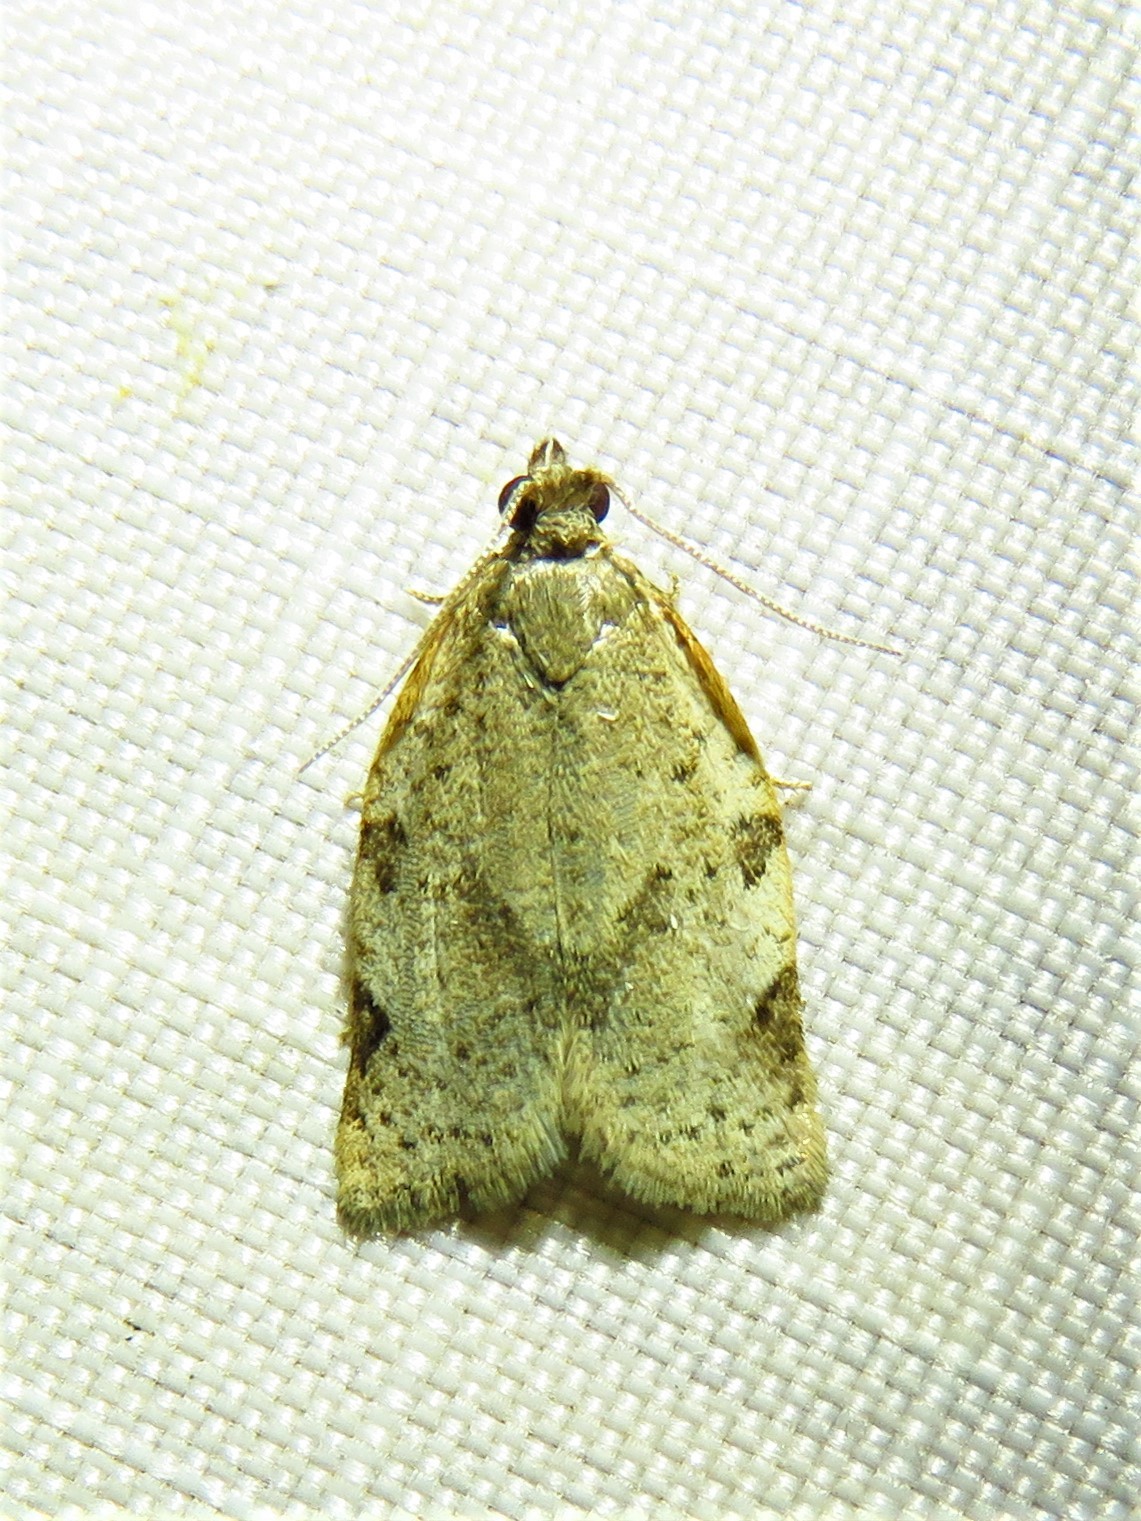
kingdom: Animalia
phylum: Arthropoda
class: Insecta
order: Lepidoptera
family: Tortricidae
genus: Clepsis
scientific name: Clepsis virescana
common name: Greenish apple moth
